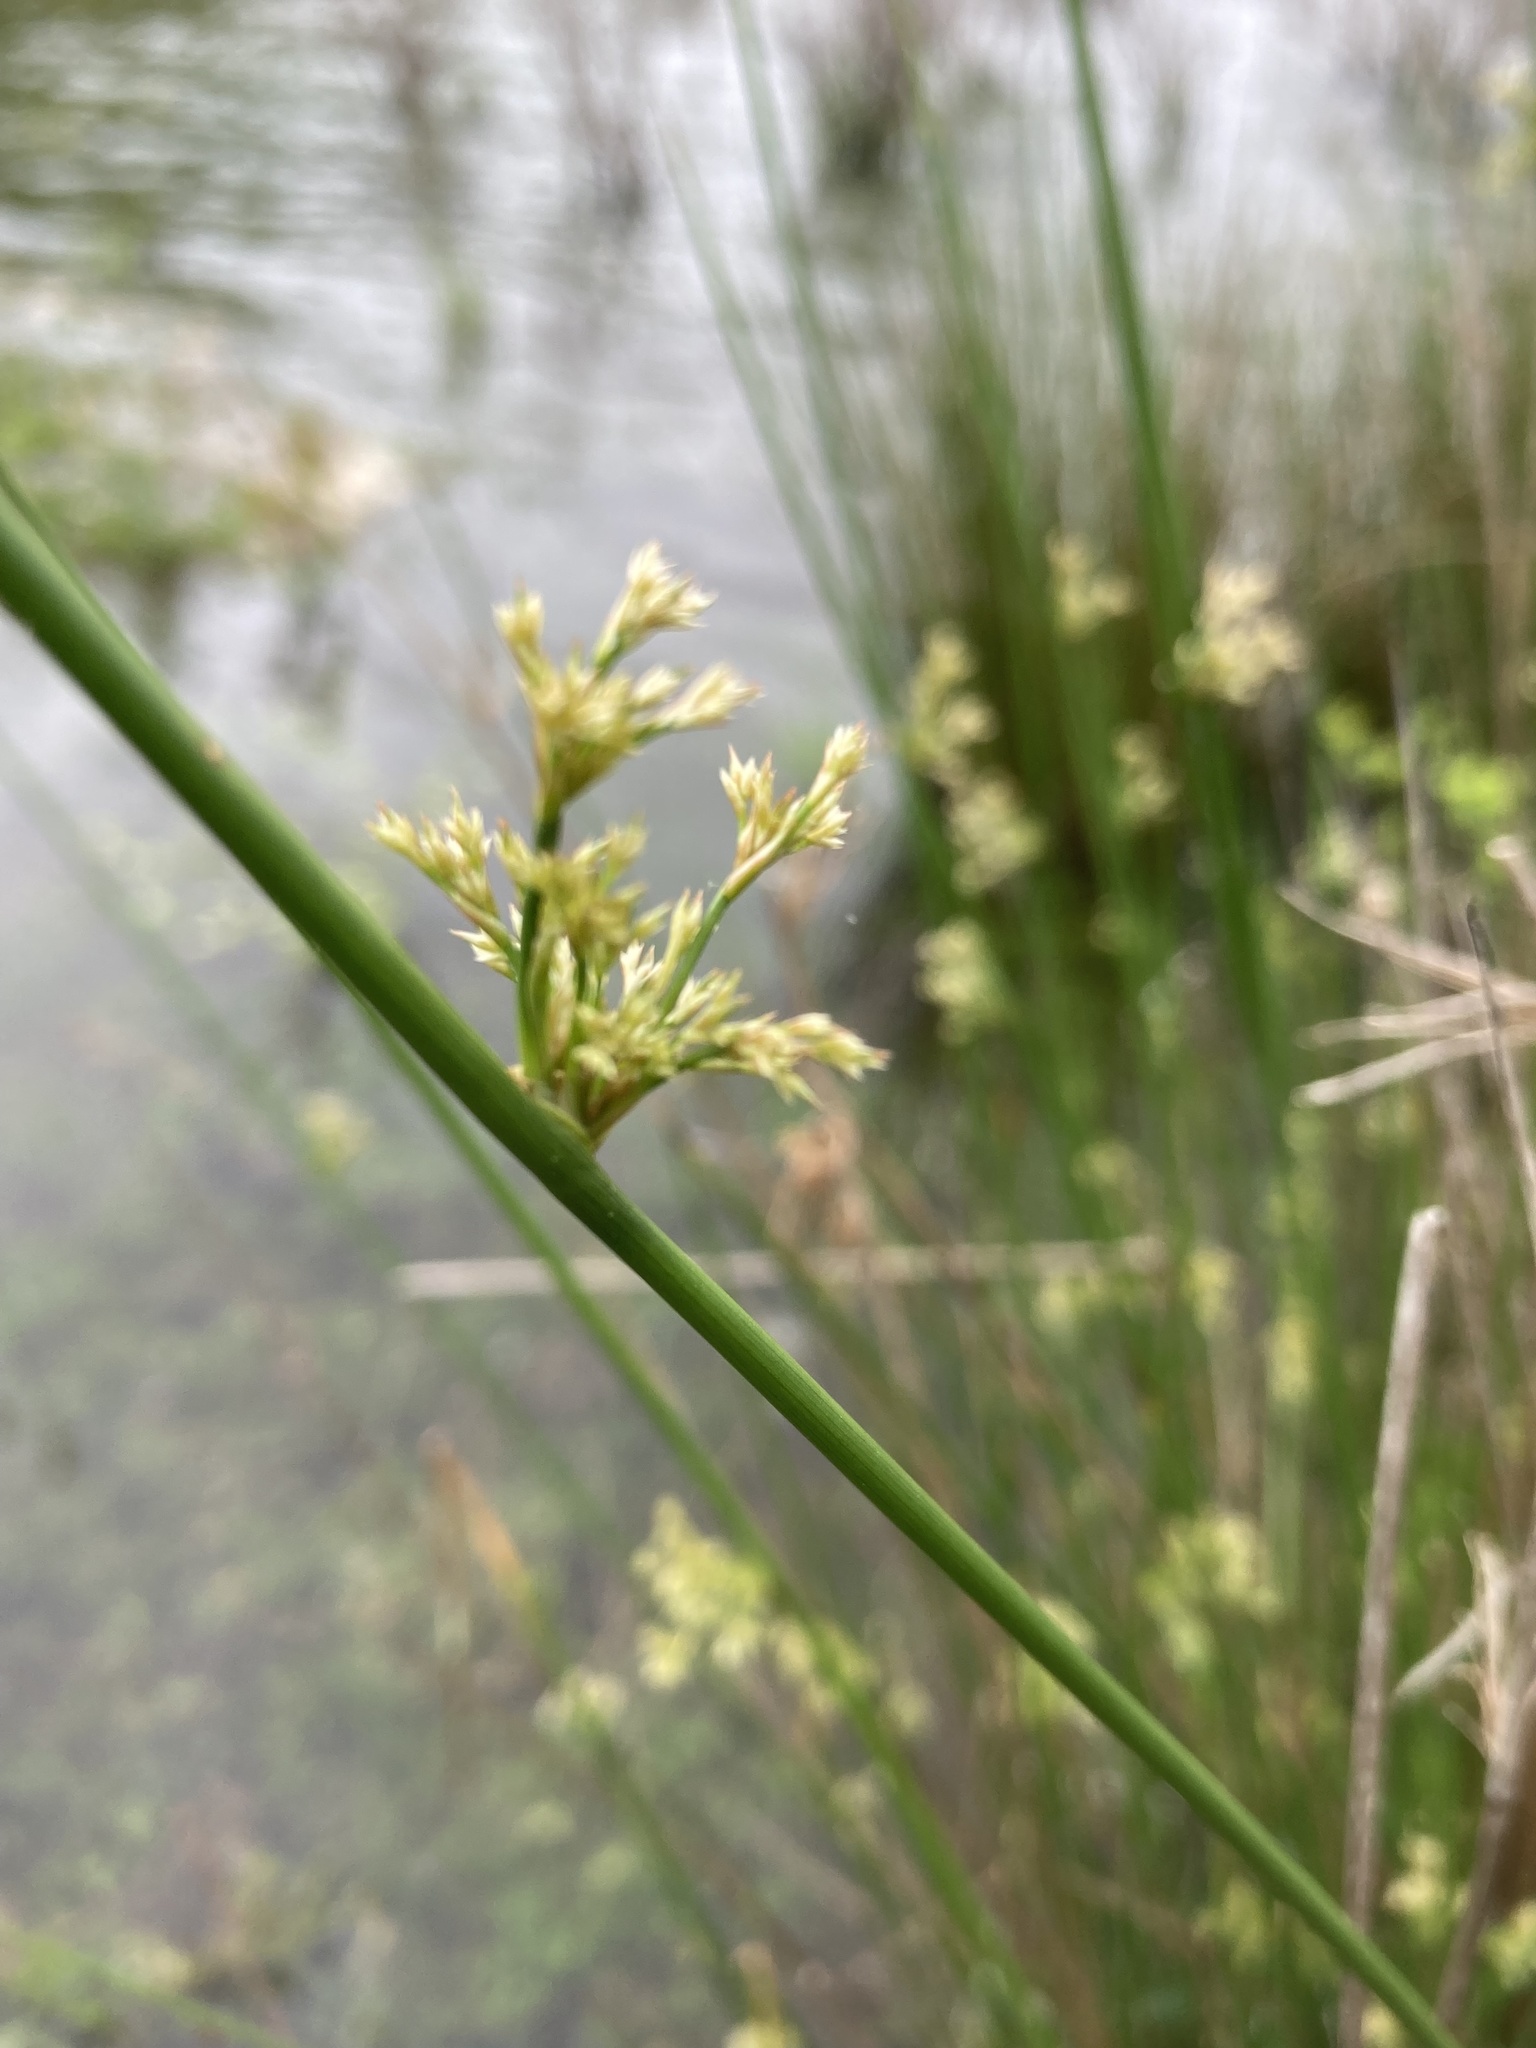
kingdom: Plantae
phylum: Tracheophyta
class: Liliopsida
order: Poales
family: Juncaceae
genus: Juncus
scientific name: Juncus effusus
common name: Soft rush
